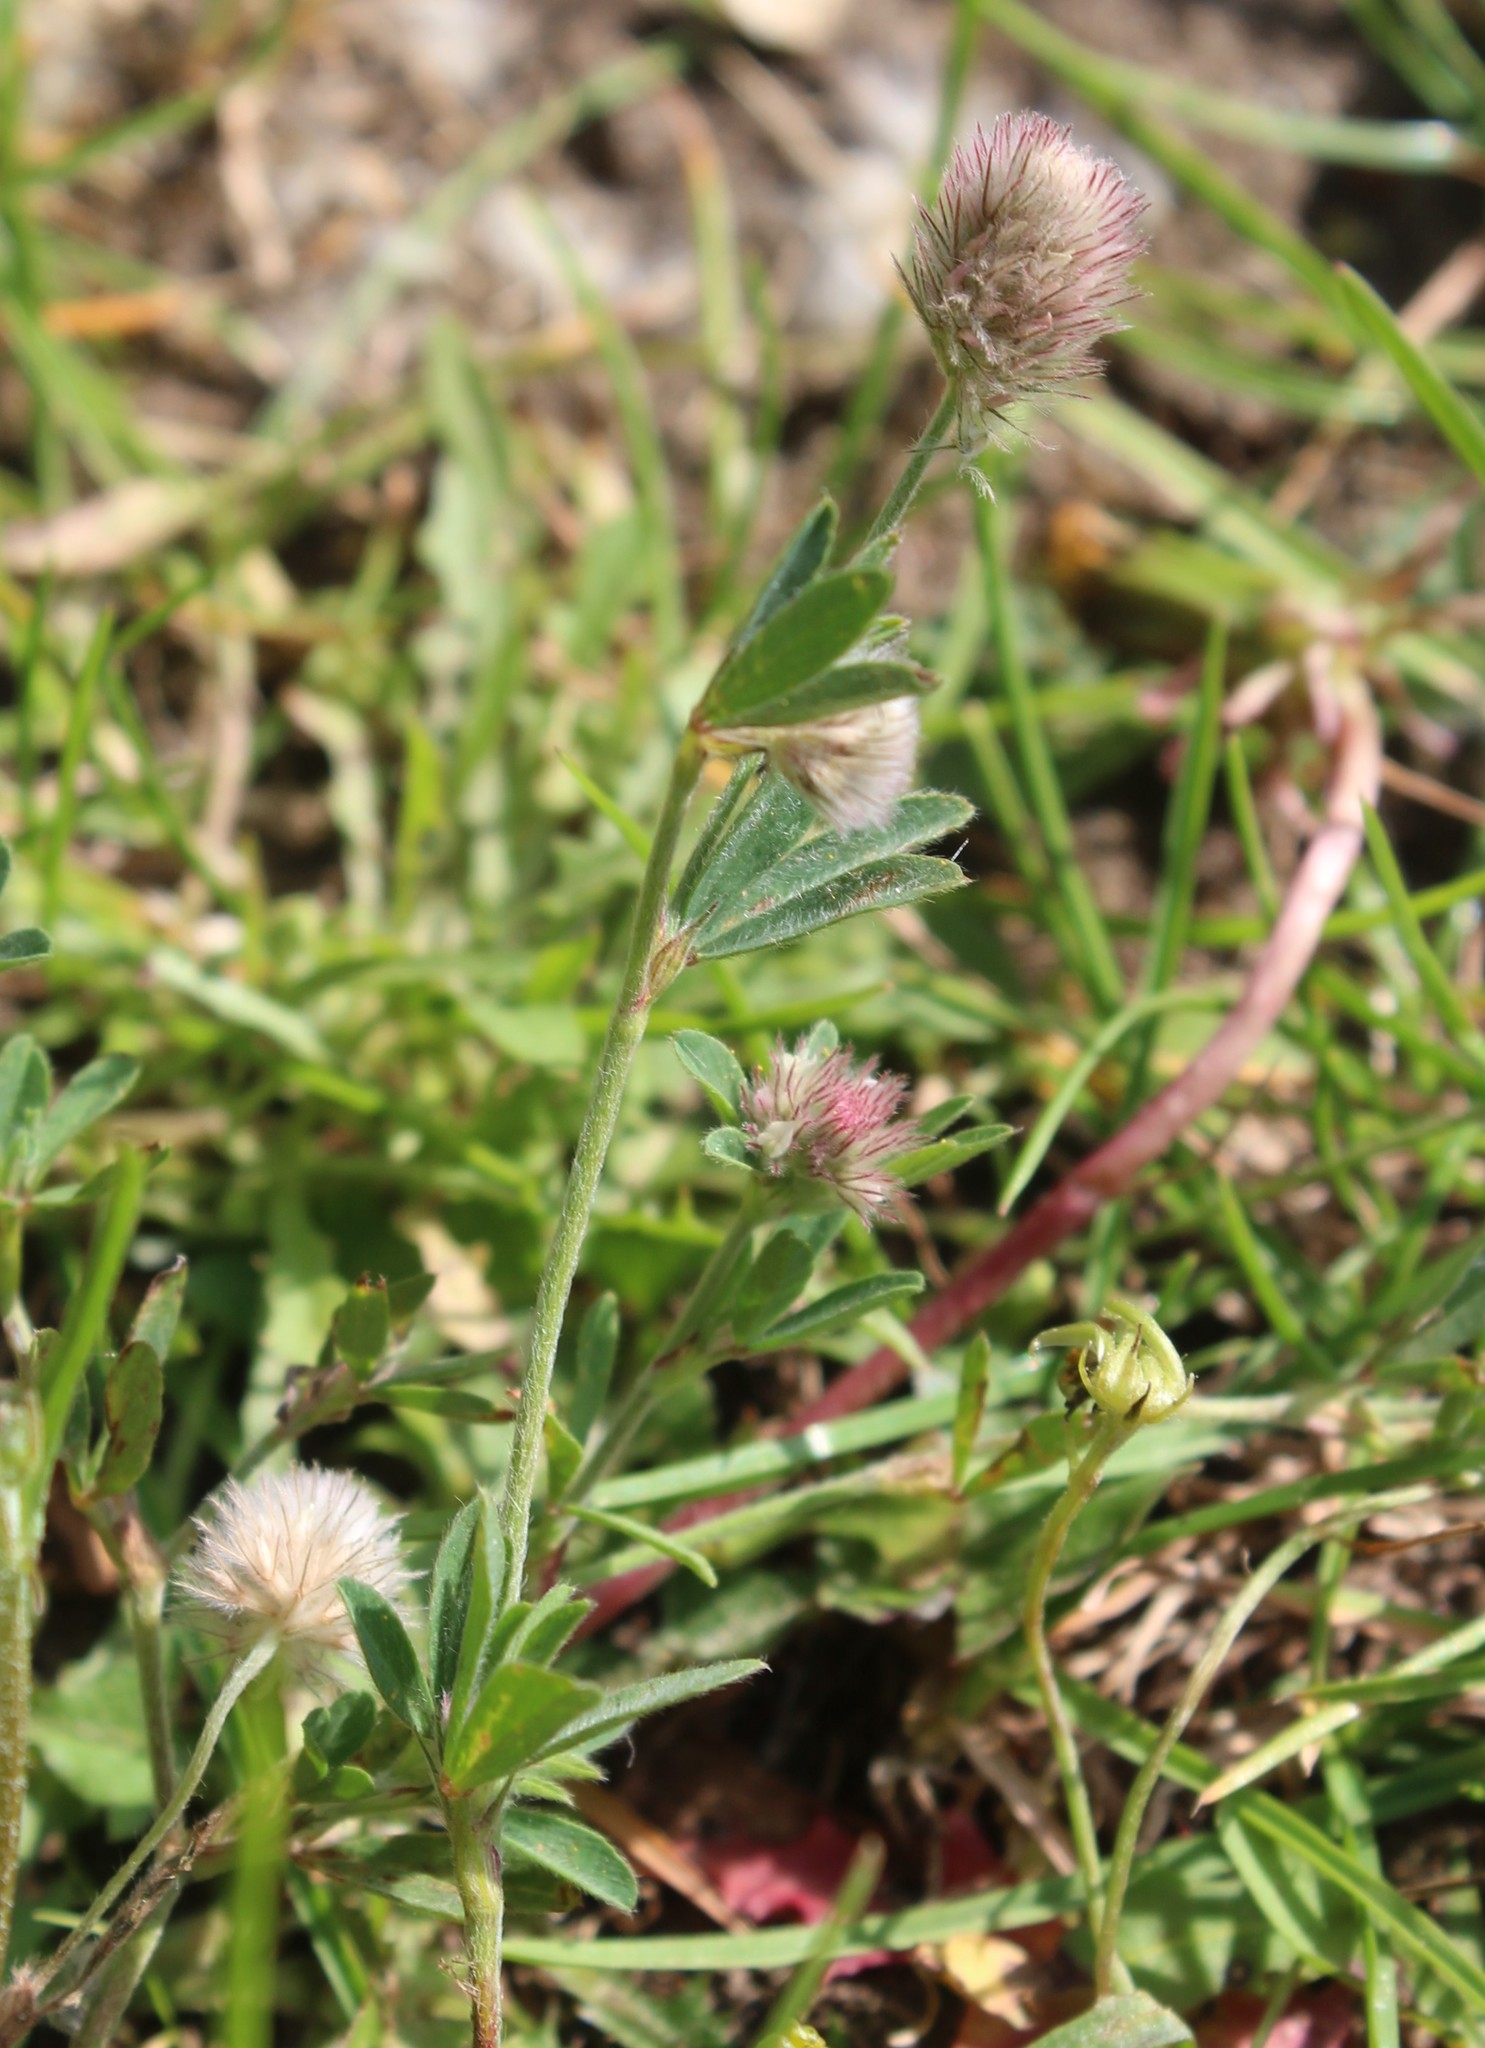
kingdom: Plantae
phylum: Tracheophyta
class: Magnoliopsida
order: Fabales
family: Fabaceae
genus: Trifolium
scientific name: Trifolium arvense
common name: Hare's-foot clover
